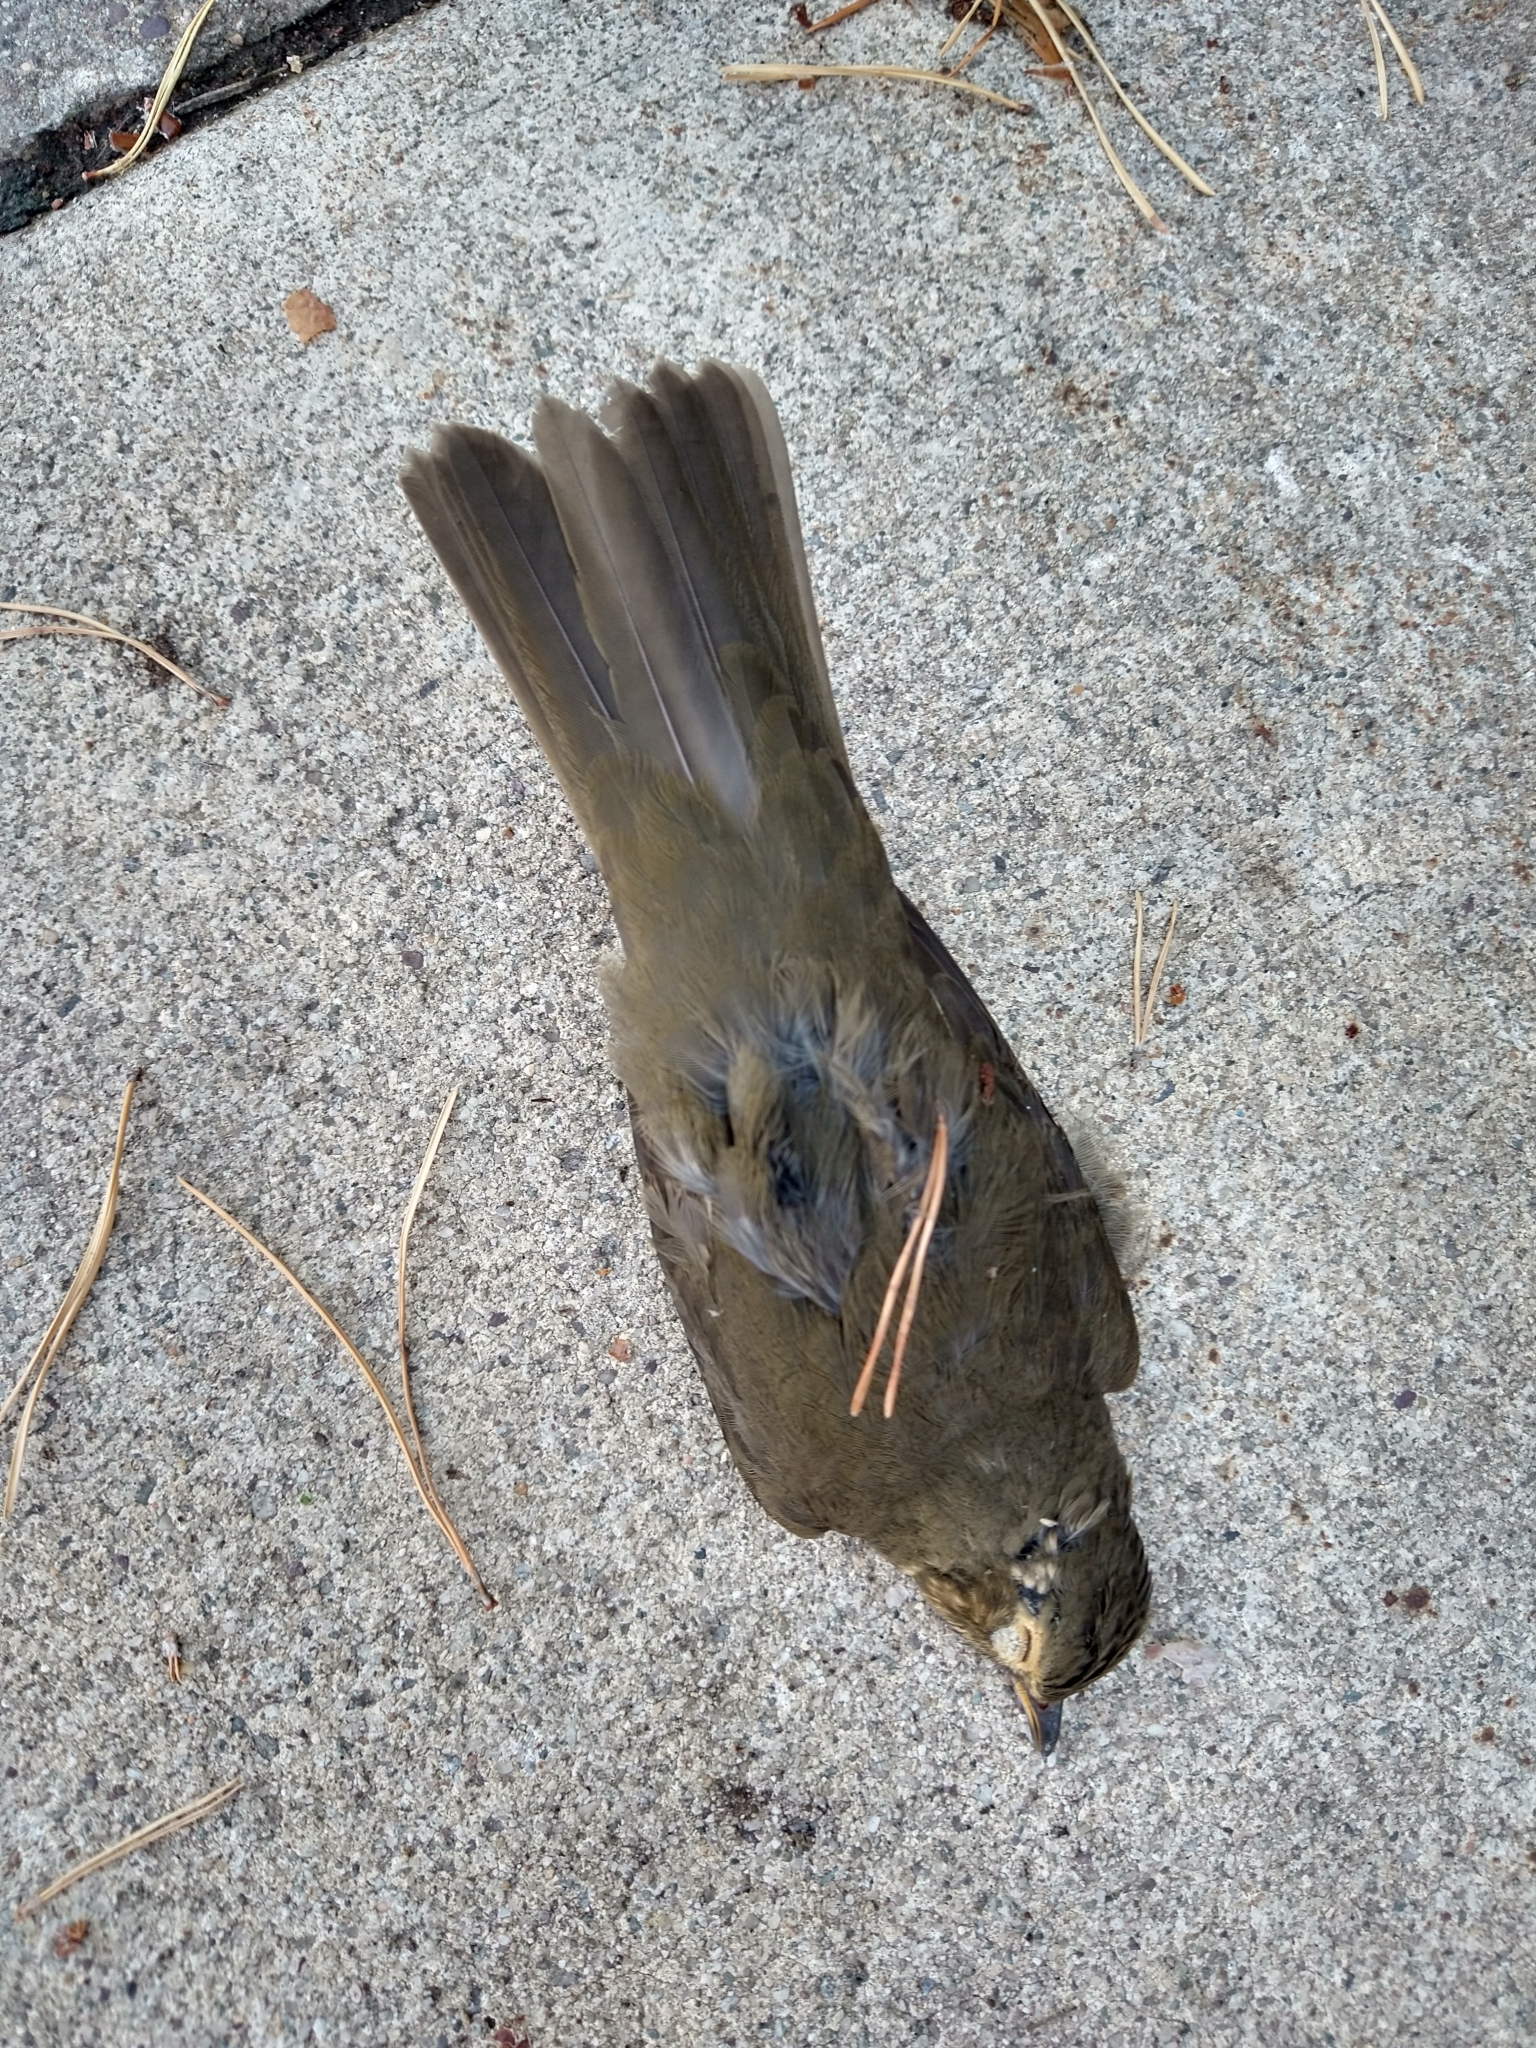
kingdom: Animalia
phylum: Chordata
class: Aves
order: Passeriformes
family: Turdidae
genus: Catharus
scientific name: Catharus ustulatus
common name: Swainson's thrush
